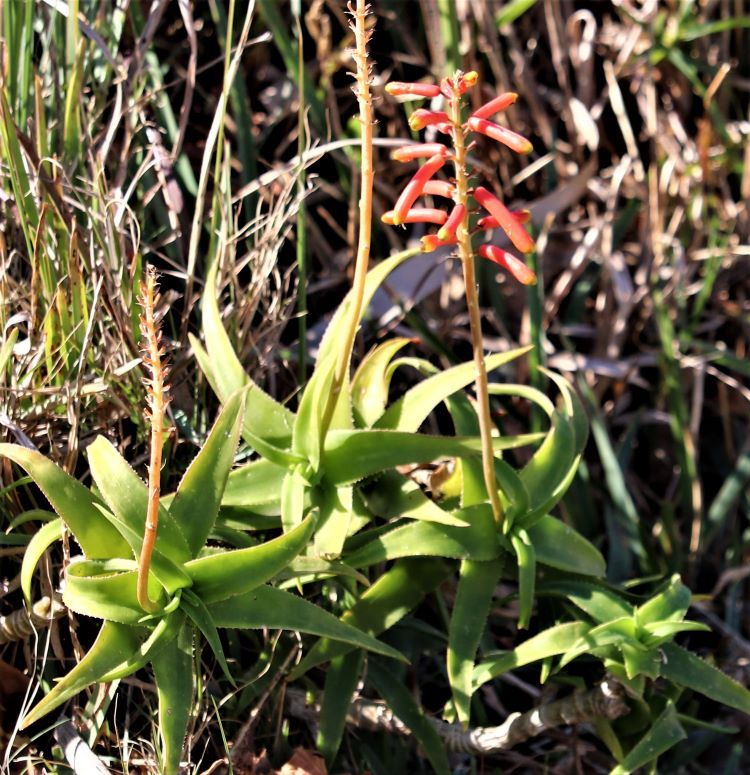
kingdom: Plantae
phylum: Tracheophyta
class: Liliopsida
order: Asparagales
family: Asphodelaceae
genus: Aloiampelos
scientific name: Aloiampelos ciliaris
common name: Climbing aloe
